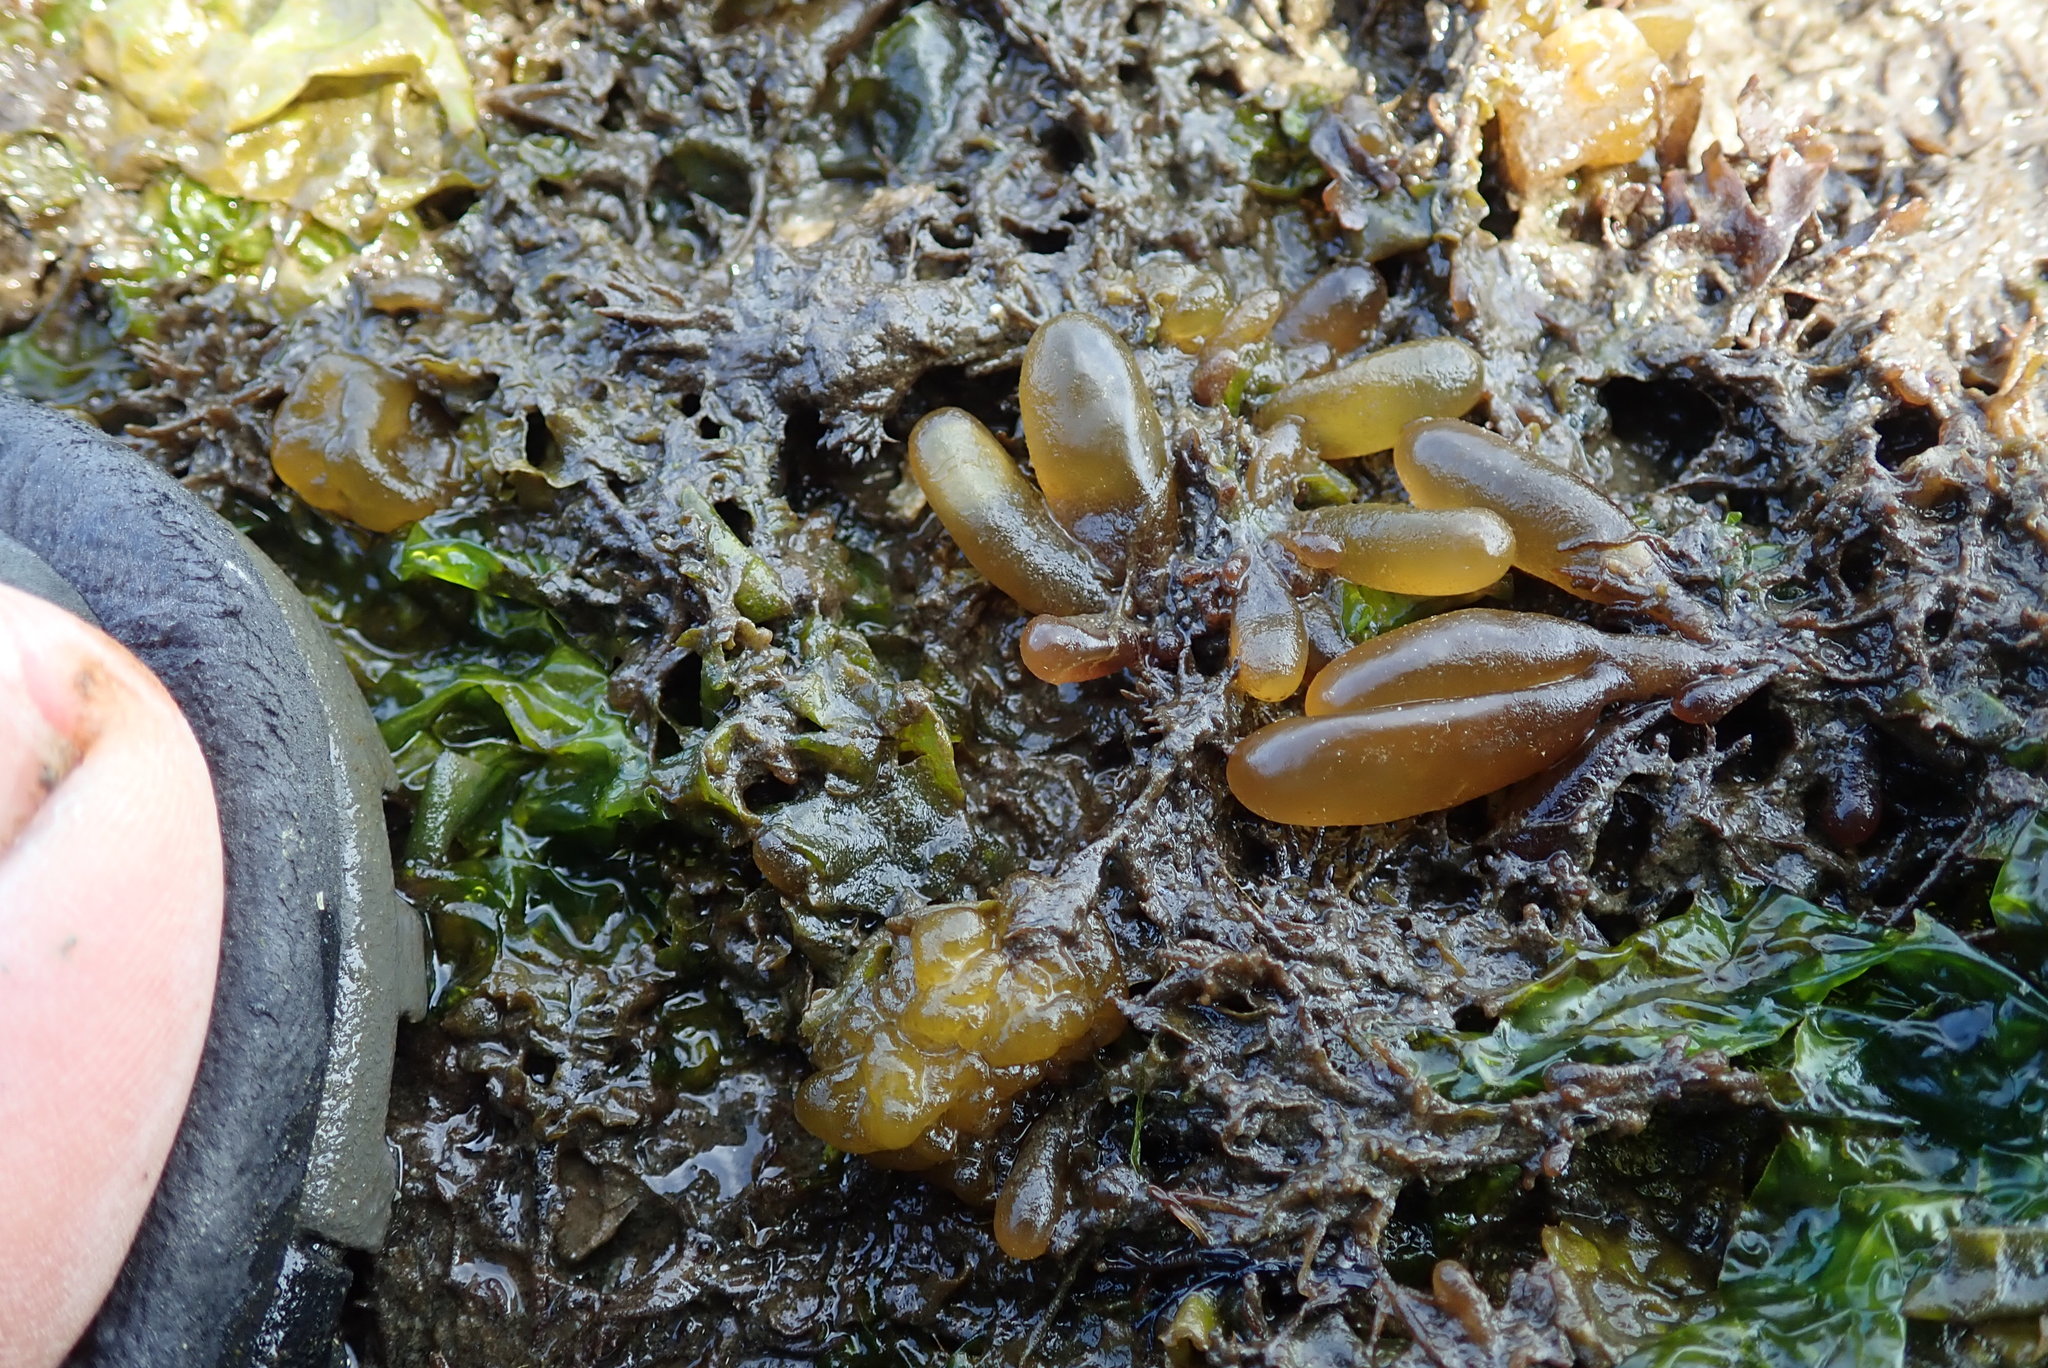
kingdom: Plantae
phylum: Rhodophyta
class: Florideophyceae
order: Palmariales
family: Palmariaceae
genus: Halosaccion
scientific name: Halosaccion glandiforme
